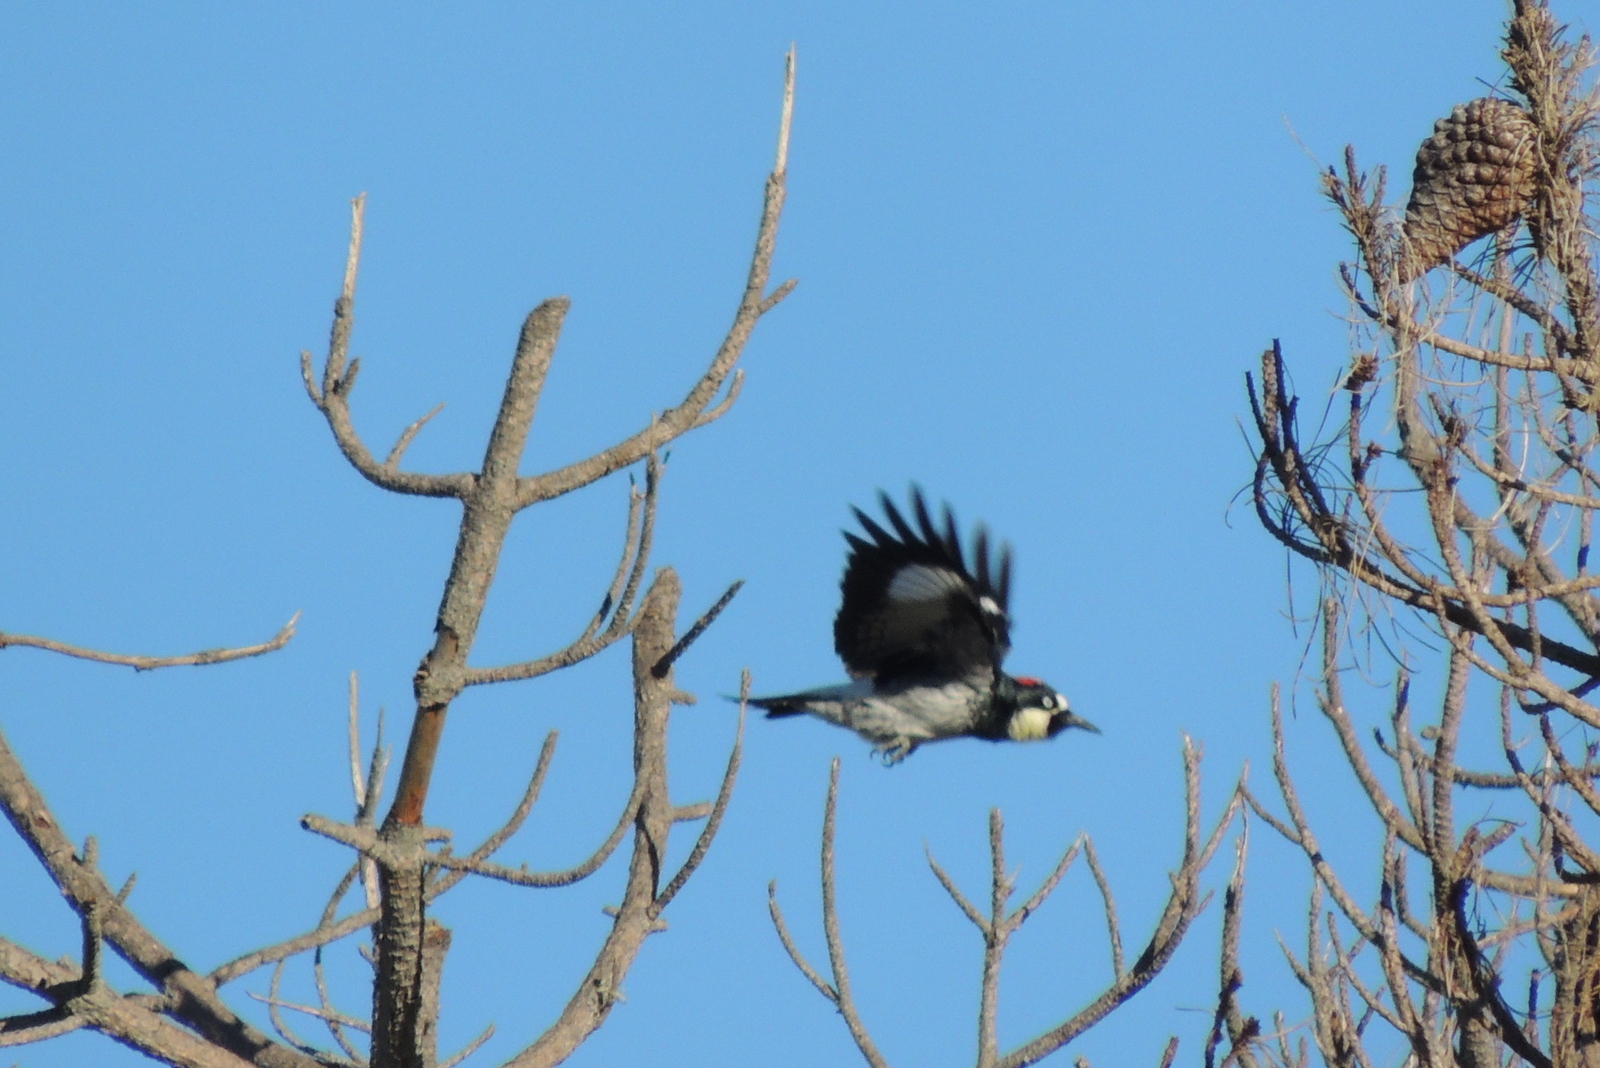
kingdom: Animalia
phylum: Chordata
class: Aves
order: Piciformes
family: Picidae
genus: Melanerpes
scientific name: Melanerpes formicivorus
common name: Acorn woodpecker
